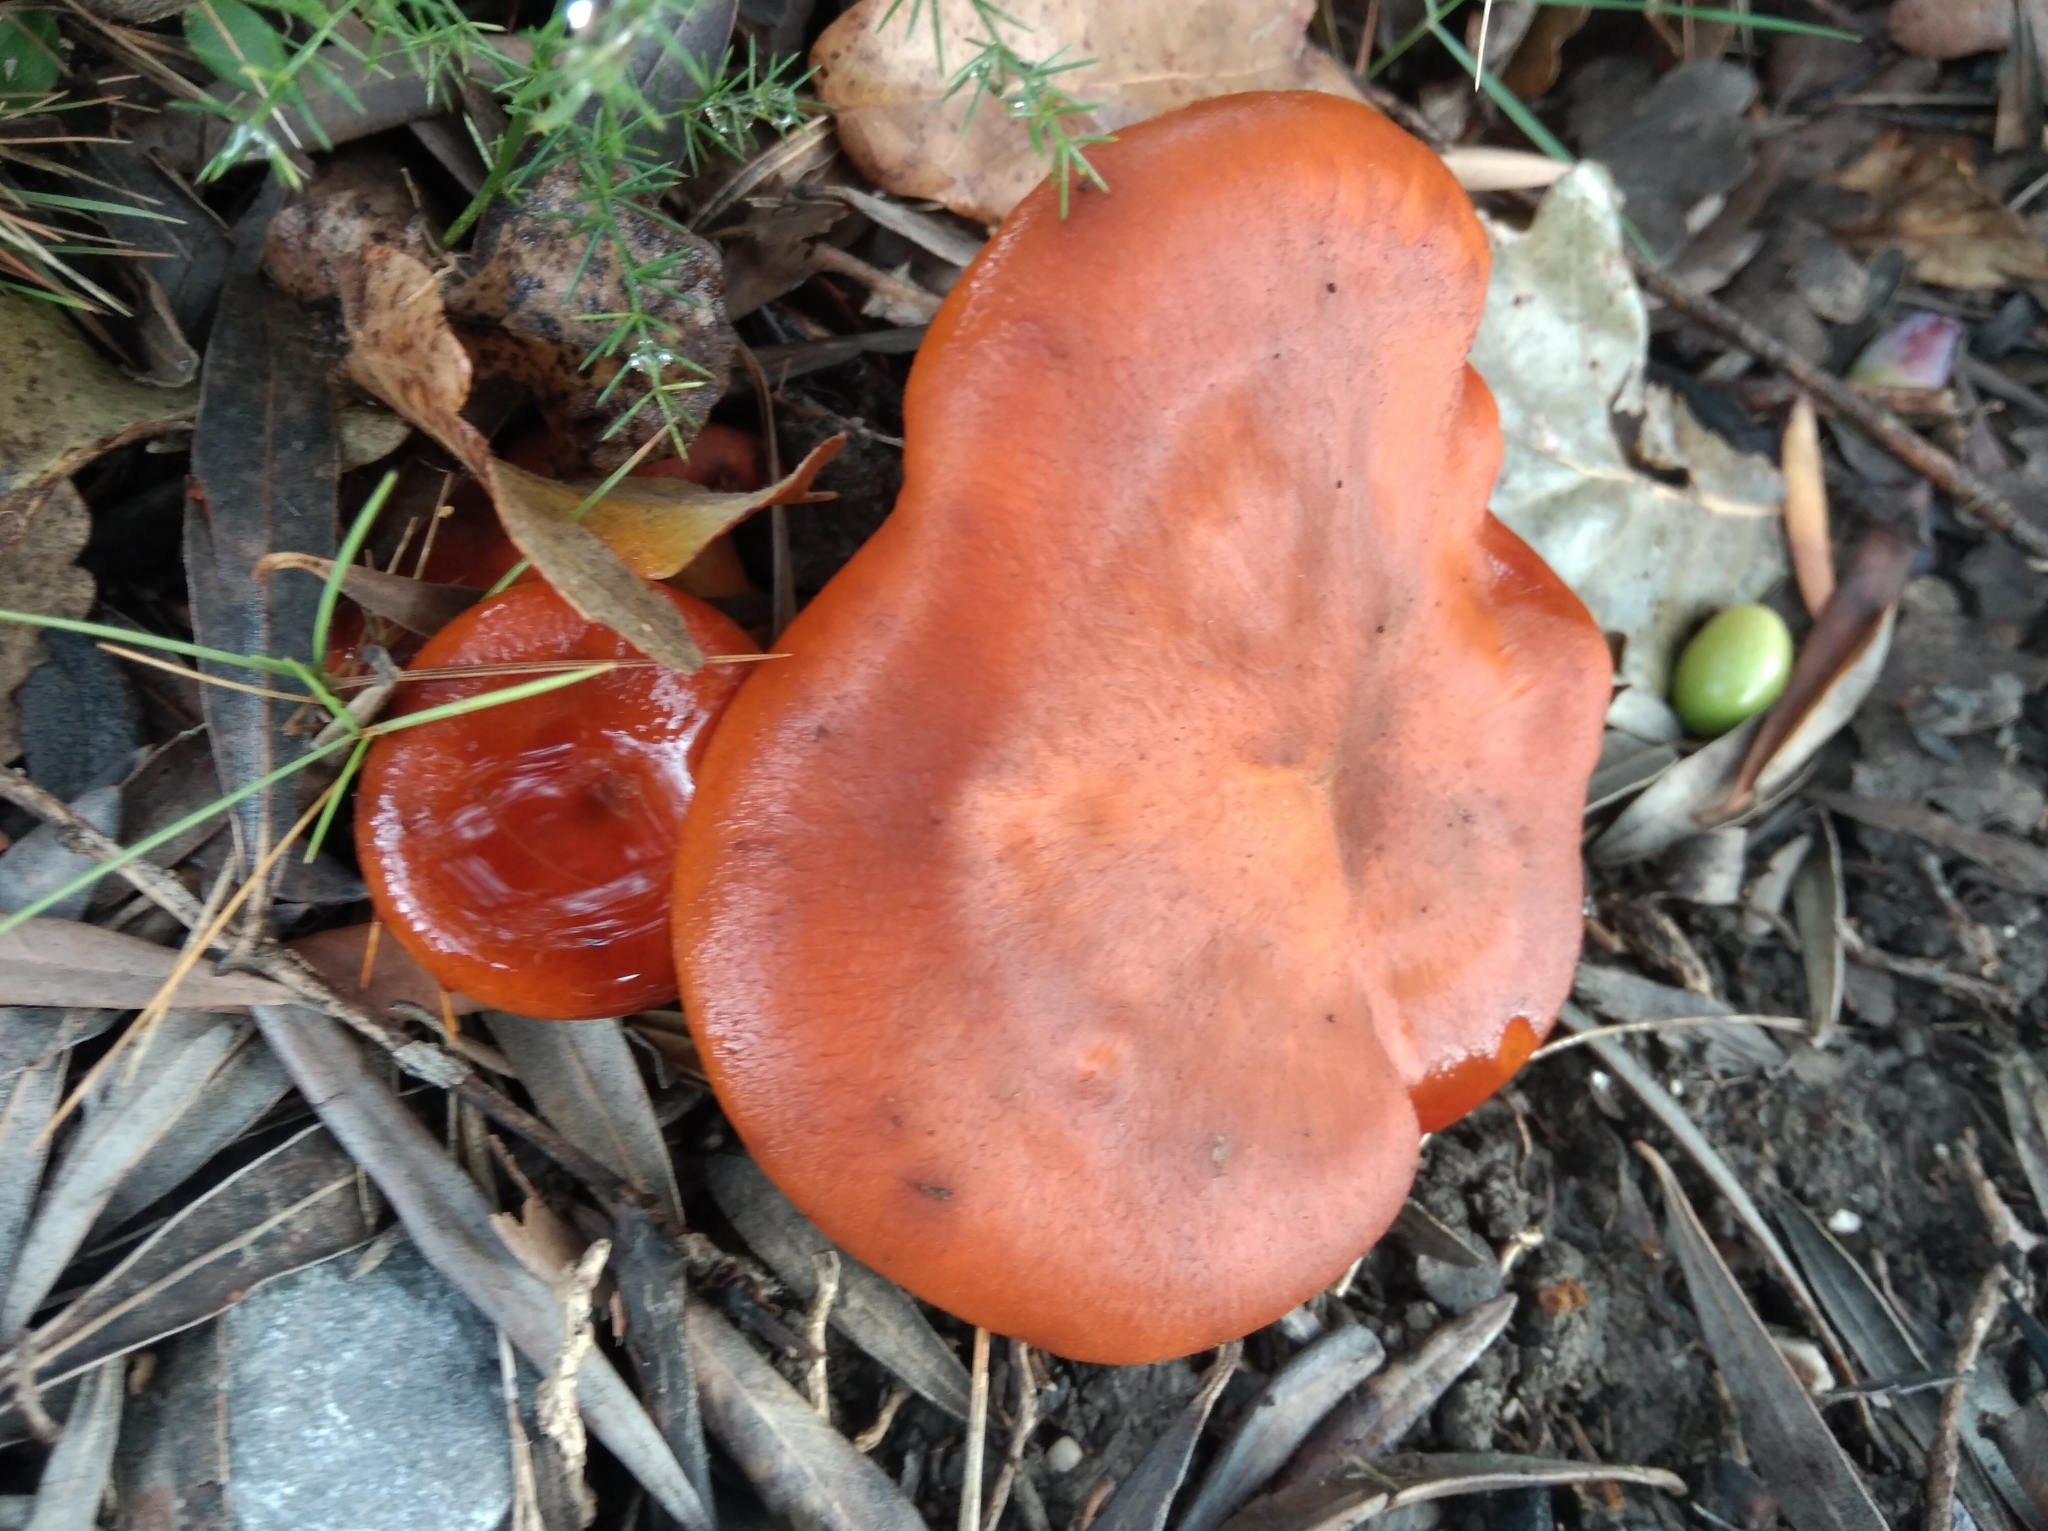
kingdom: Fungi
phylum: Basidiomycota
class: Agaricomycetes
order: Agaricales
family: Omphalotaceae
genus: Omphalotus
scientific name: Omphalotus olearius
